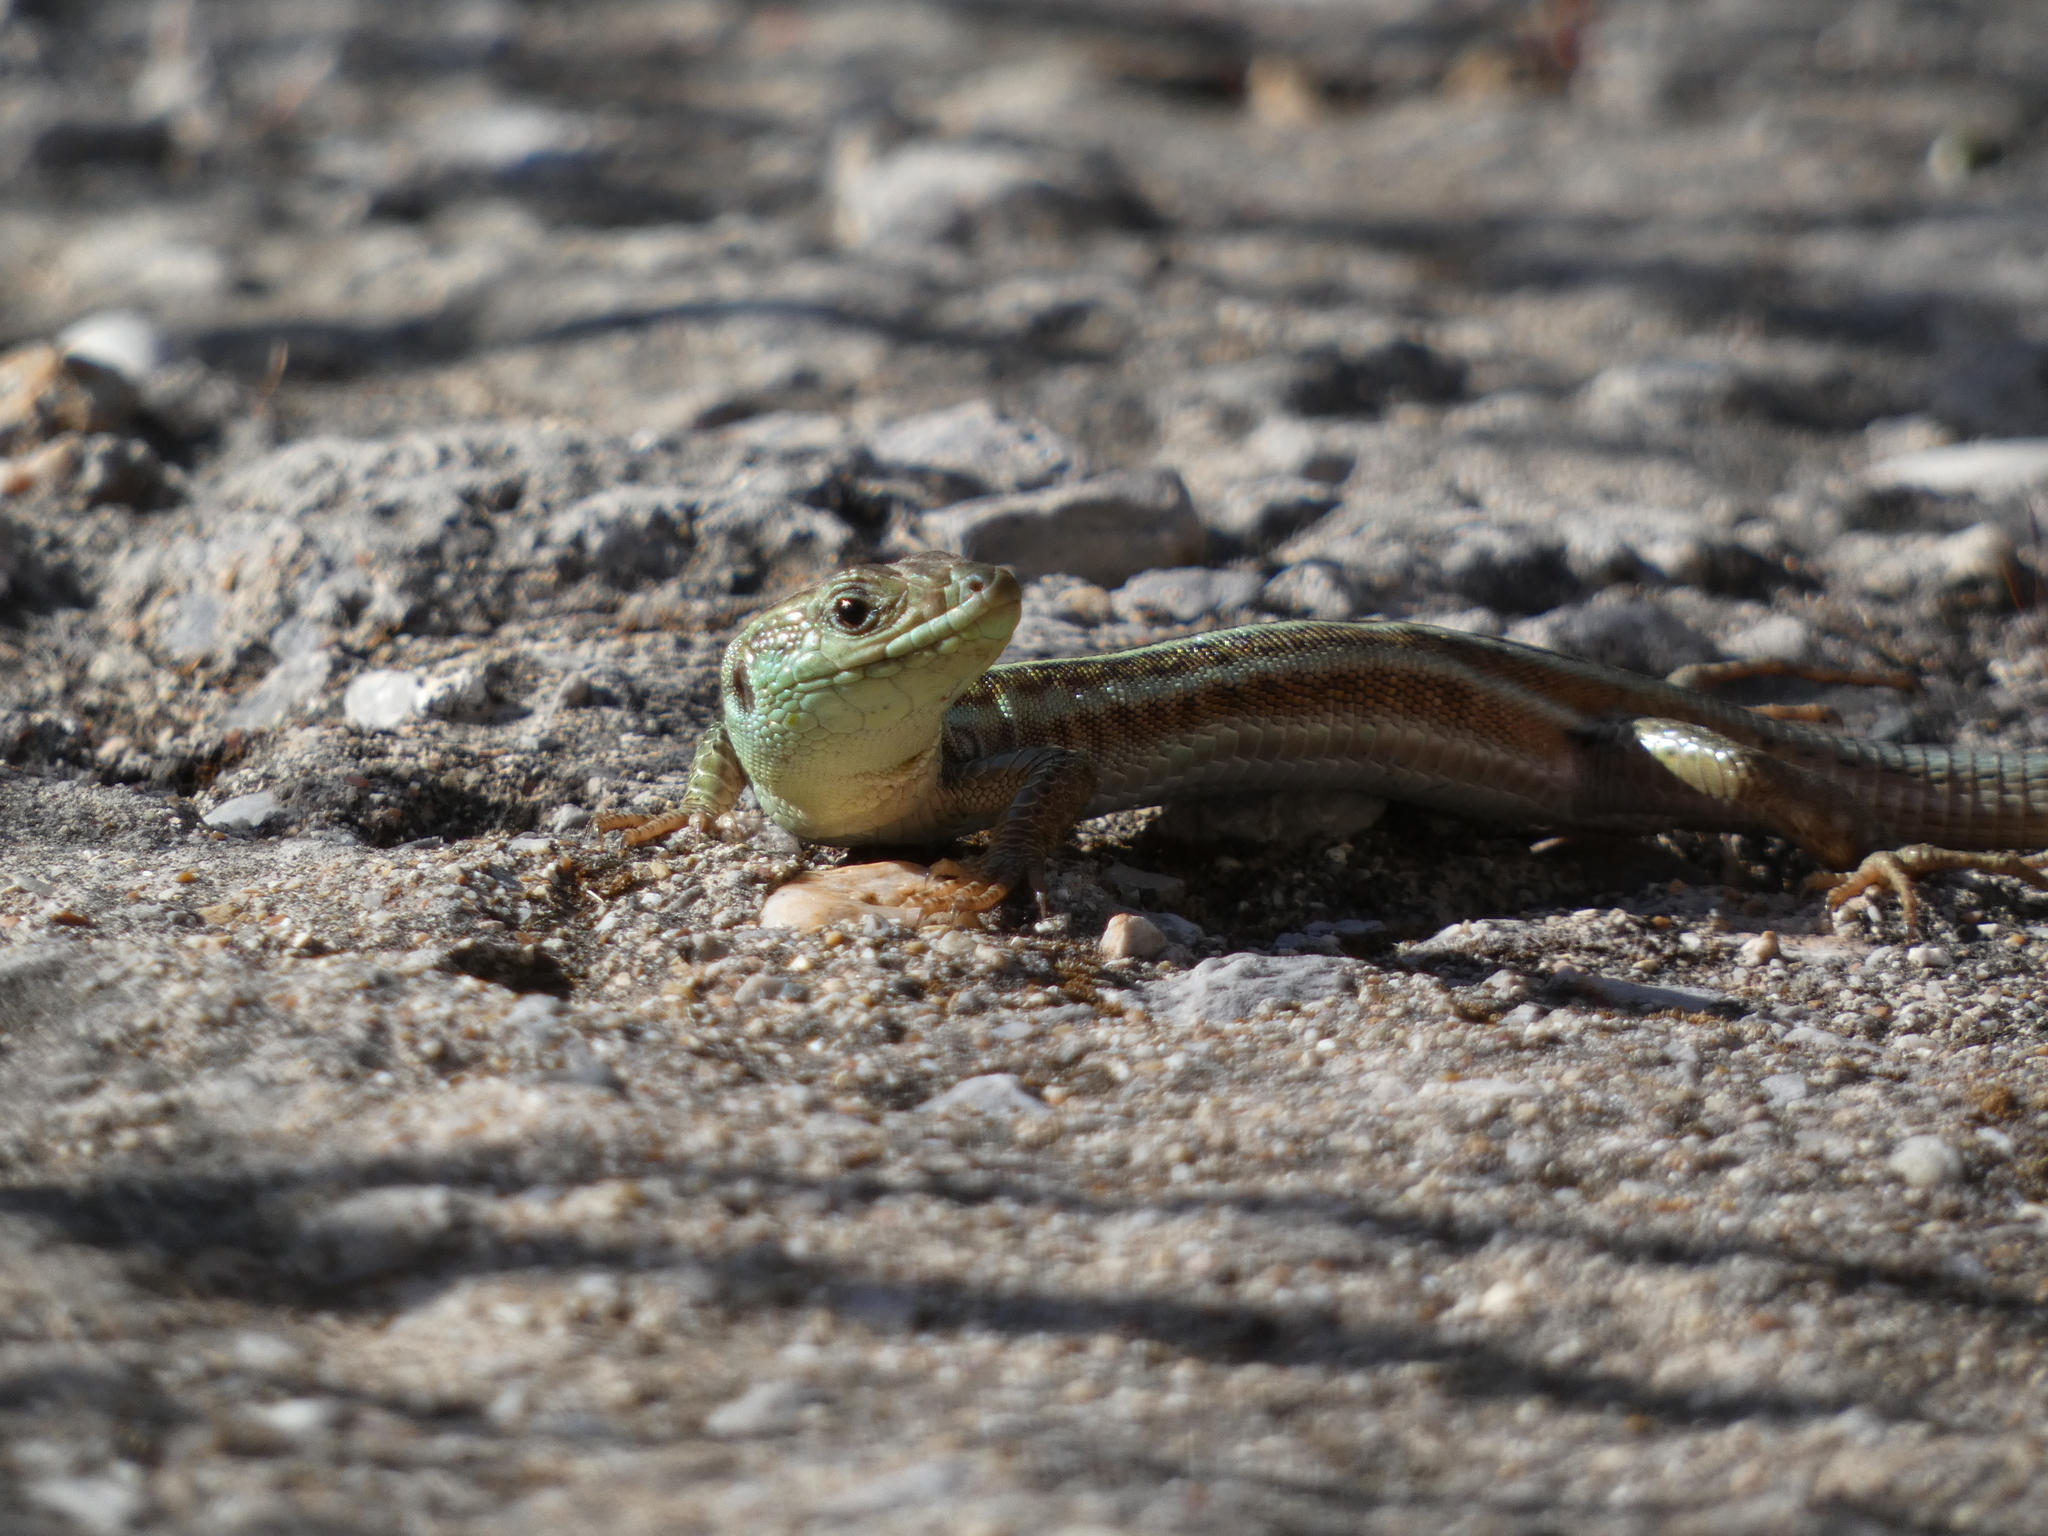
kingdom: Animalia
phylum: Chordata
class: Squamata
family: Lacertidae
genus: Podarcis
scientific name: Podarcis peloponnesiacus
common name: Peloponnese wall lizard
